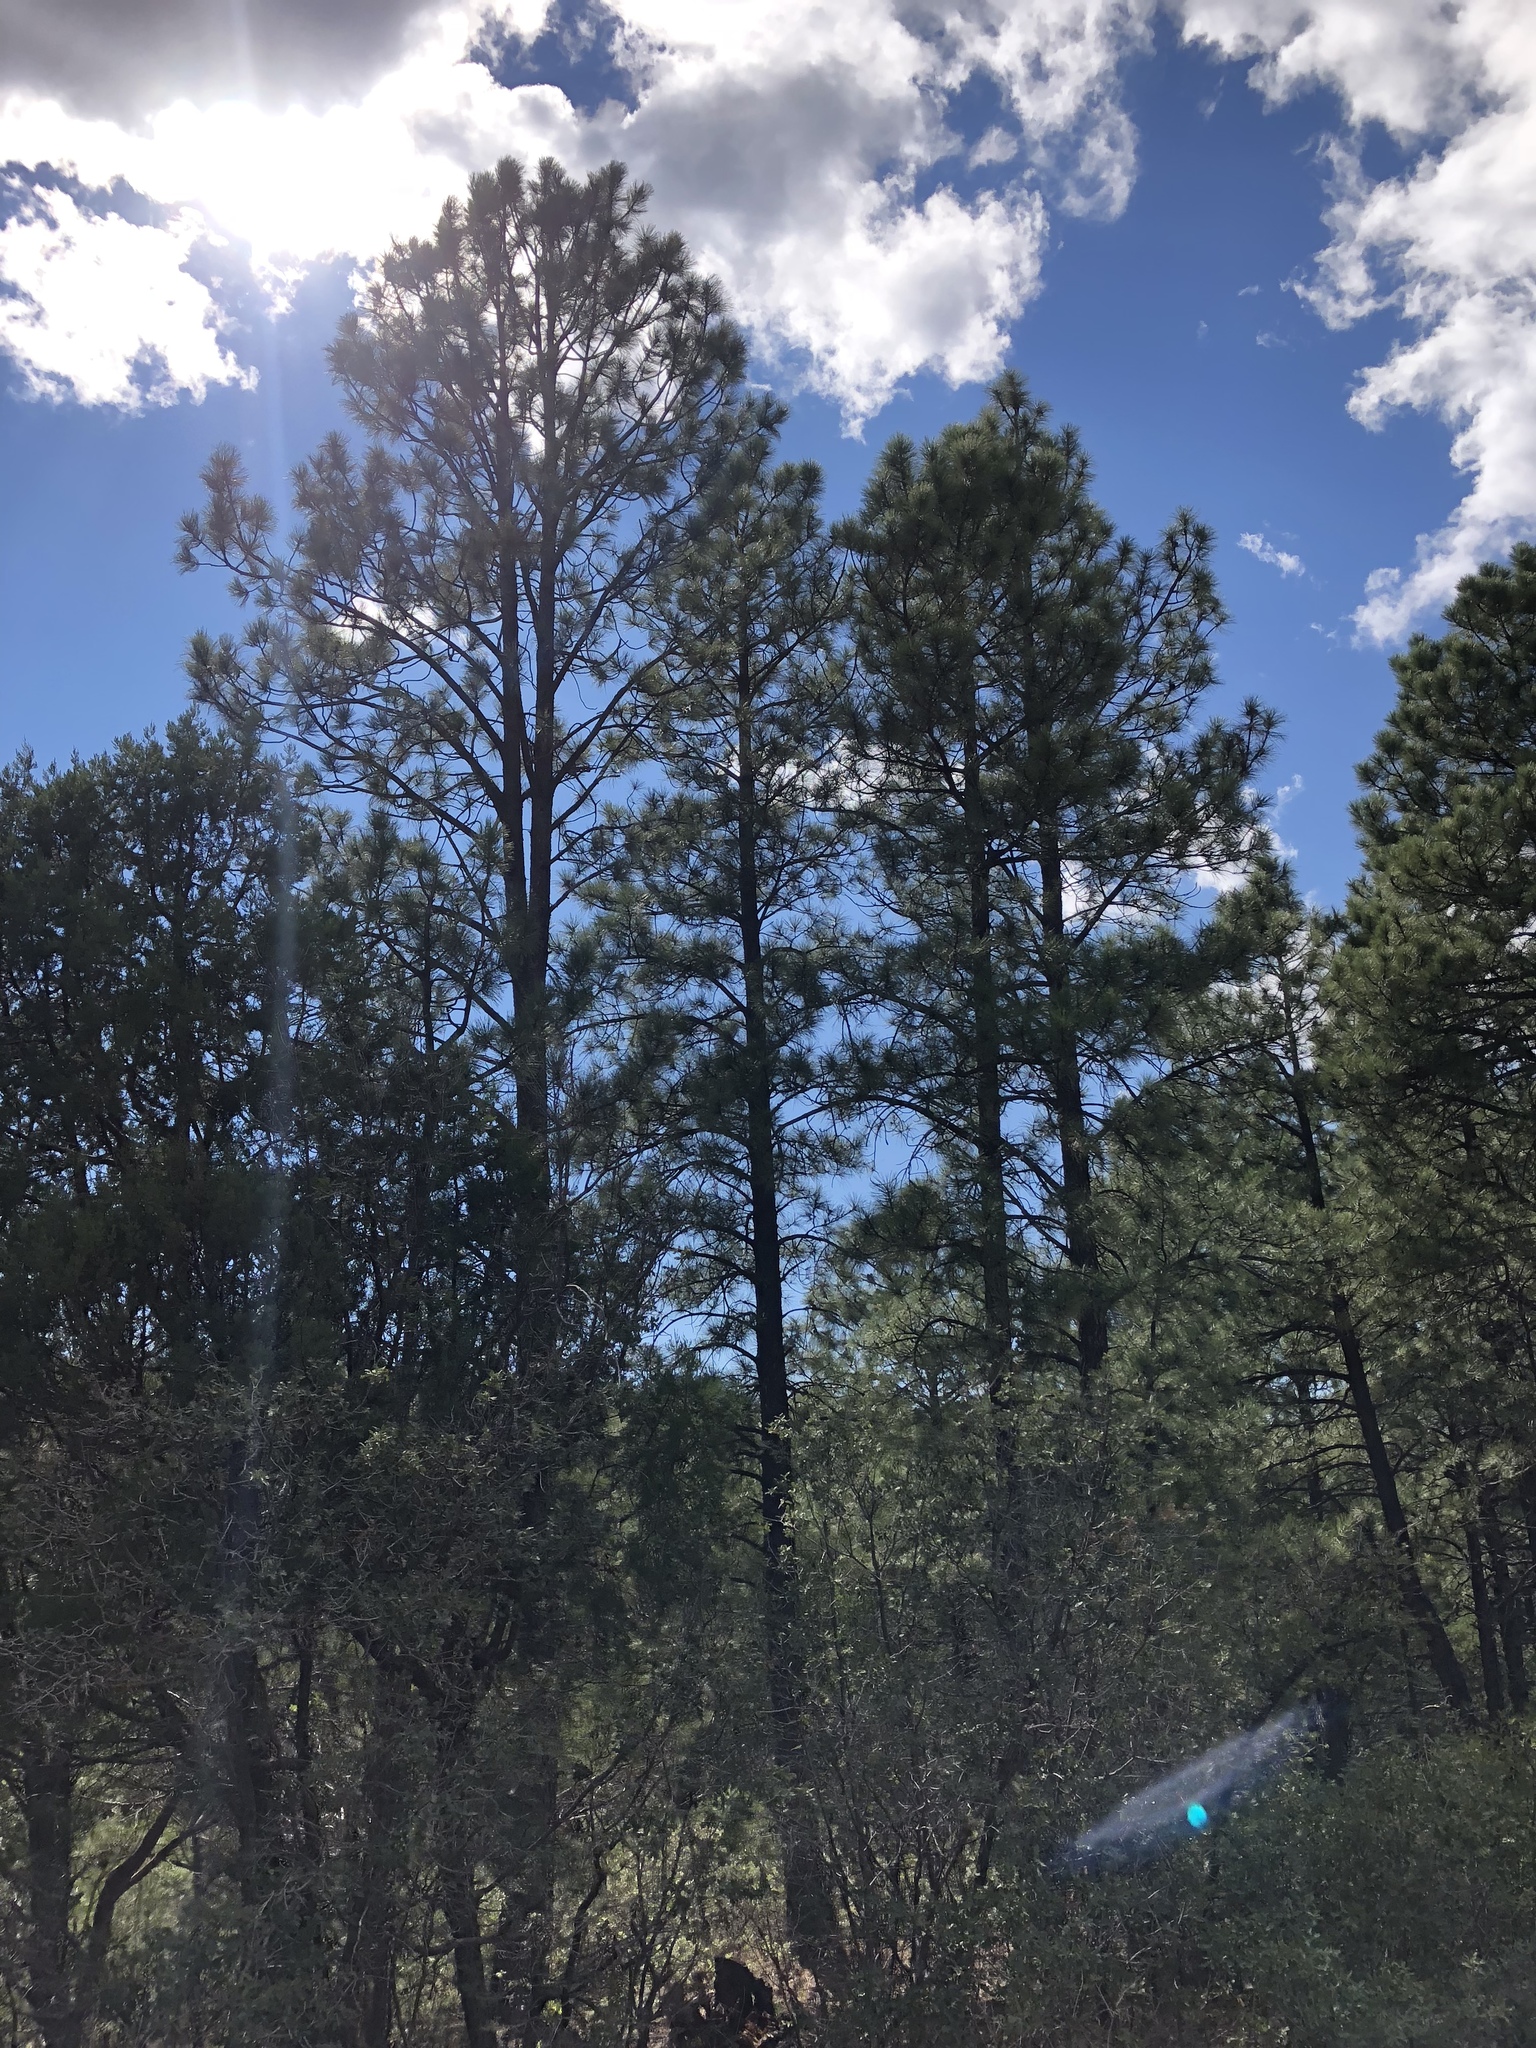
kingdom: Plantae
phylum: Tracheophyta
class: Pinopsida
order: Pinales
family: Pinaceae
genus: Pinus
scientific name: Pinus ponderosa
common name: Western yellow-pine
